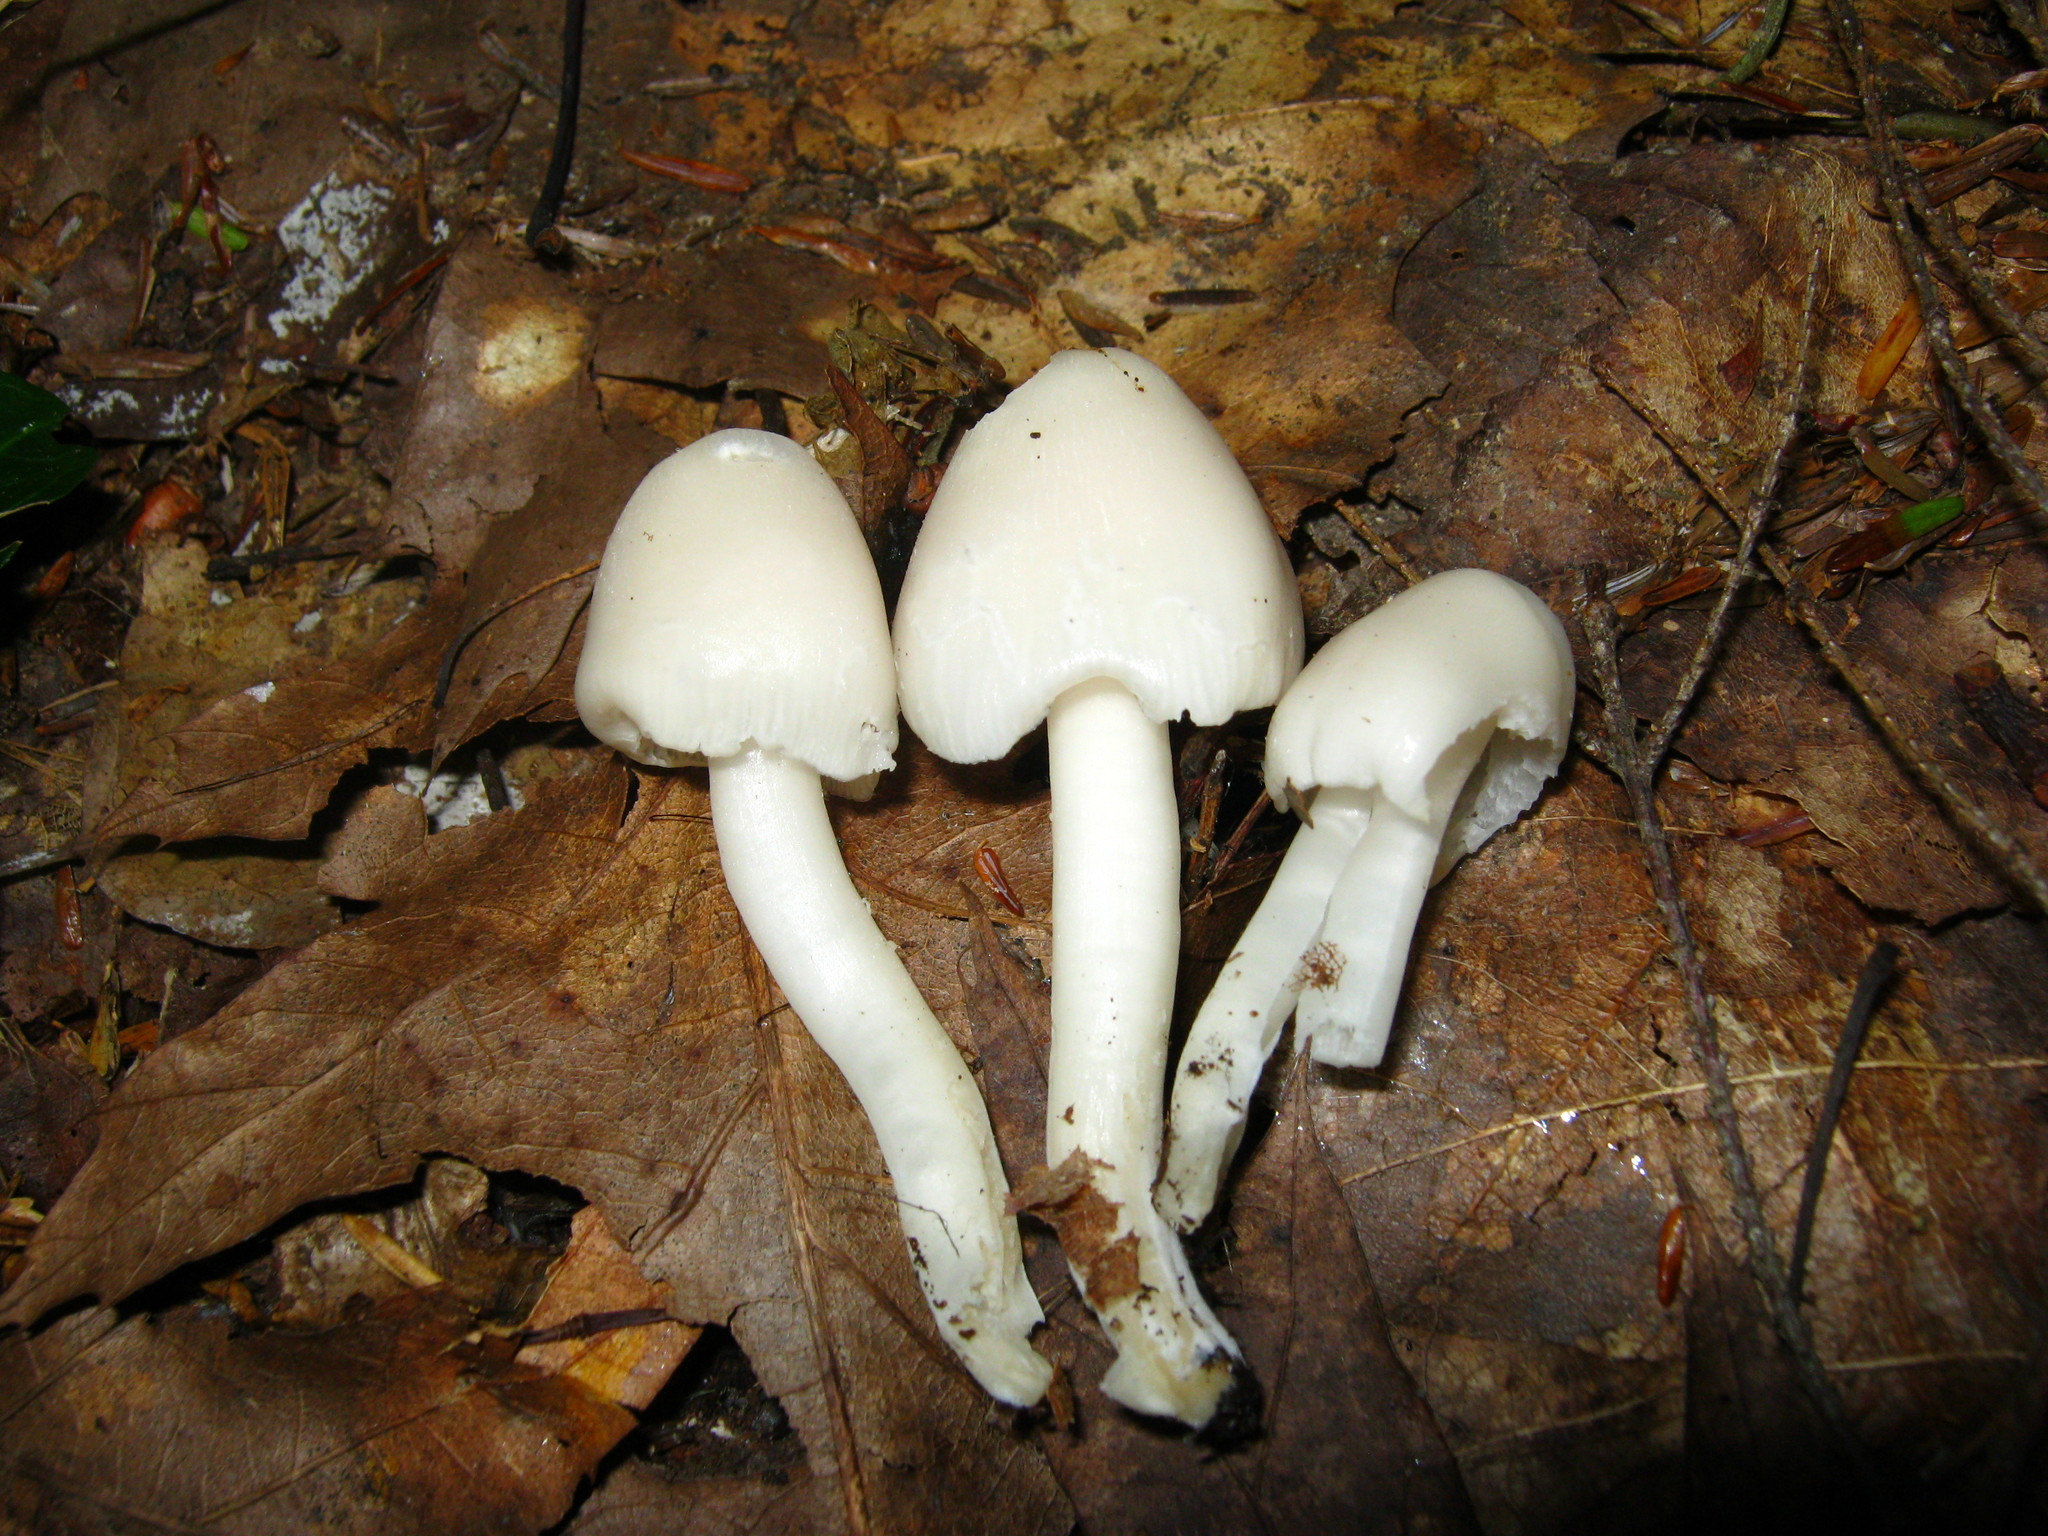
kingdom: Fungi
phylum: Basidiomycota
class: Agaricomycetes
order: Agaricales
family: Hygrophoraceae
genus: Humidicutis
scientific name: Humidicutis pura
